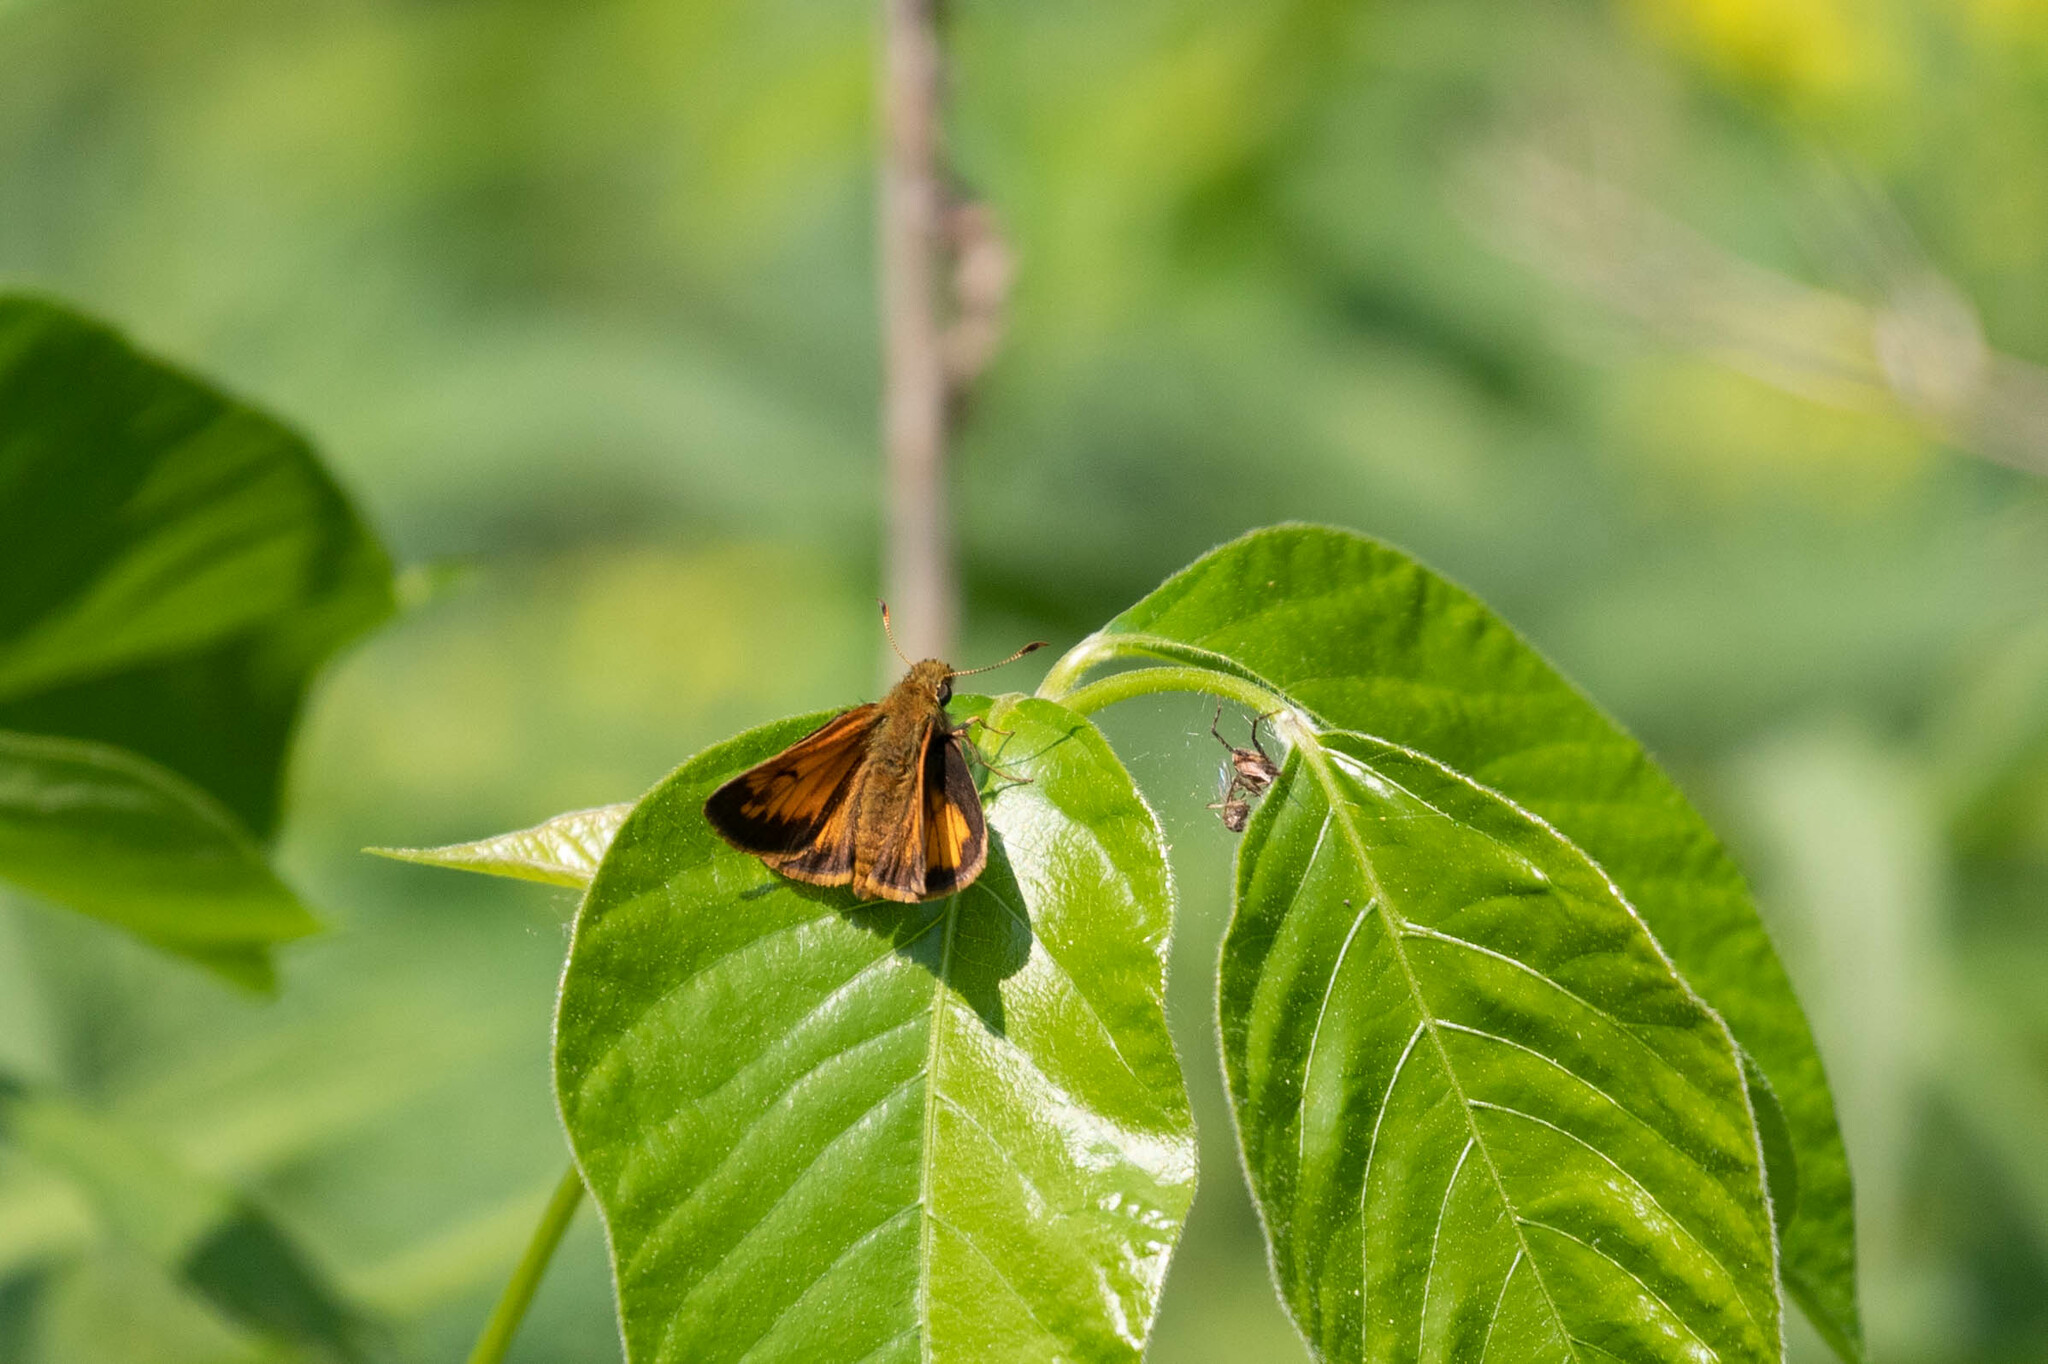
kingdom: Animalia
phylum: Arthropoda
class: Insecta
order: Lepidoptera
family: Hesperiidae
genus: Lon
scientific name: Lon hobomok
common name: Hobomok skipper
